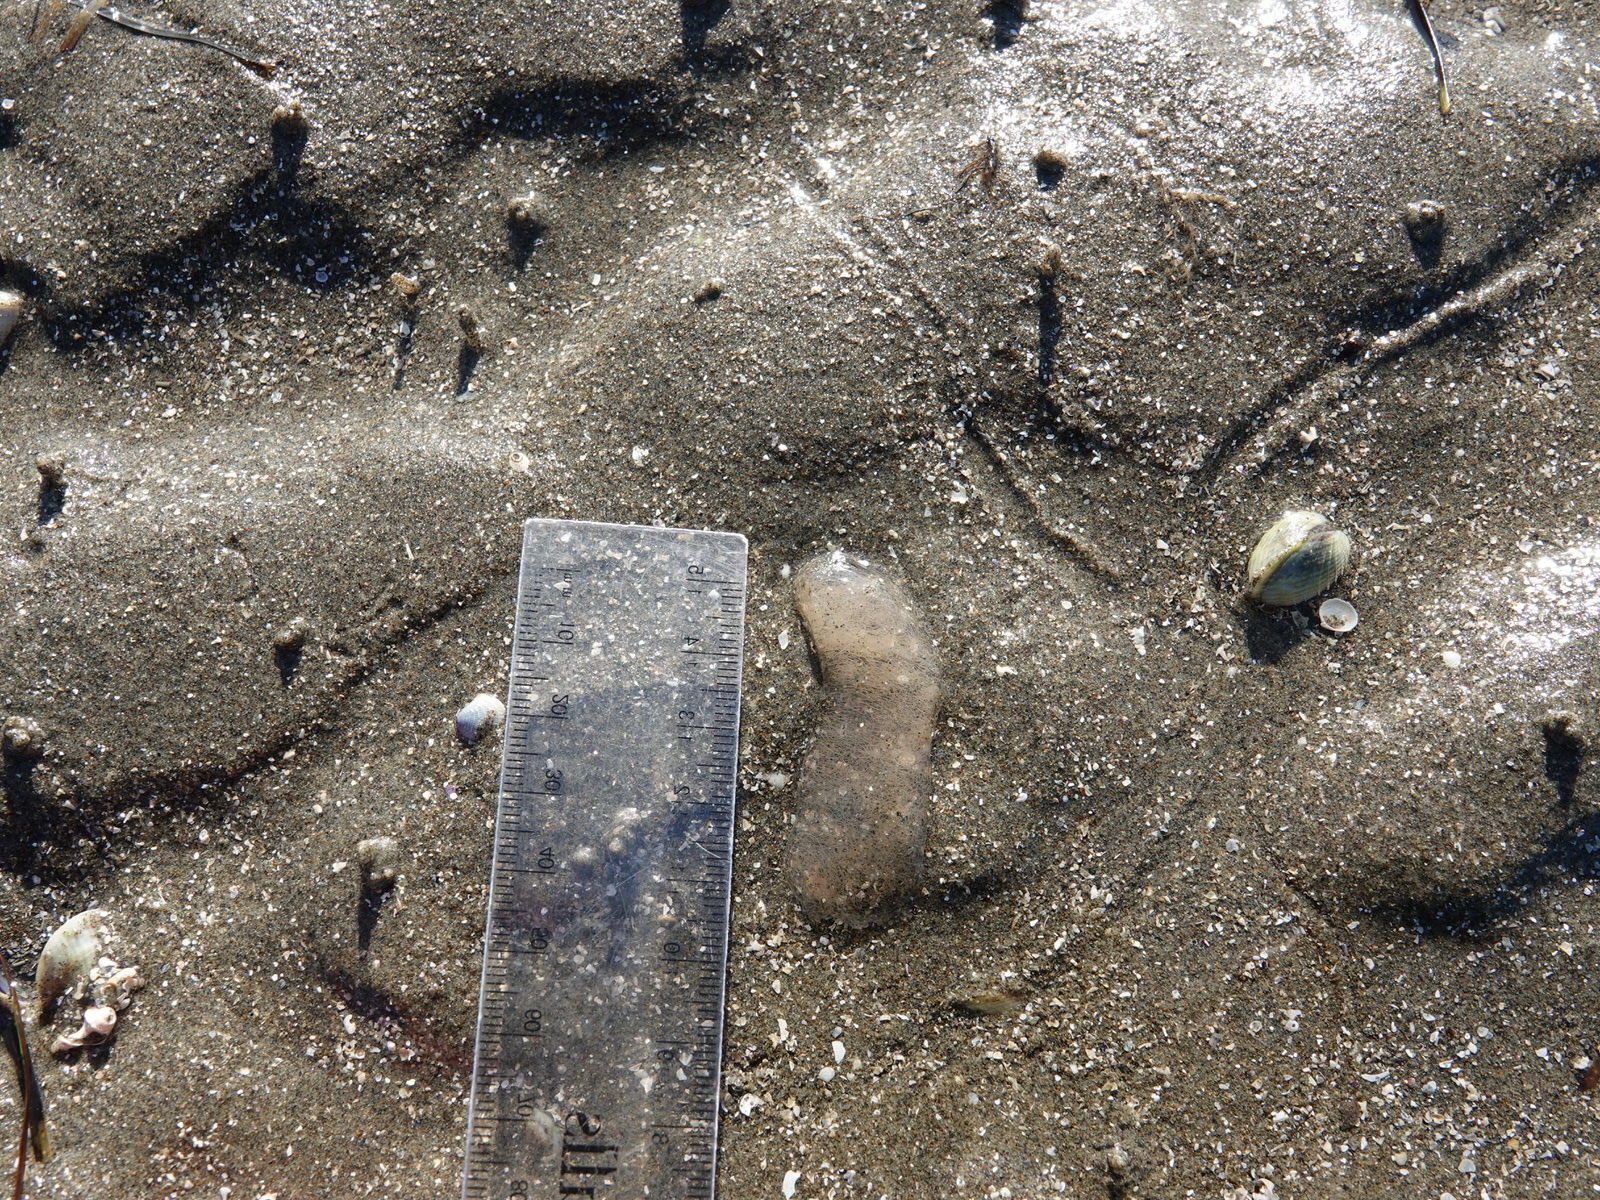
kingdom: Animalia
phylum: Mollusca
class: Gastropoda
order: Cephalaspidea
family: Haminoeidae
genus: Papawera
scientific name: Papawera zelandiae
